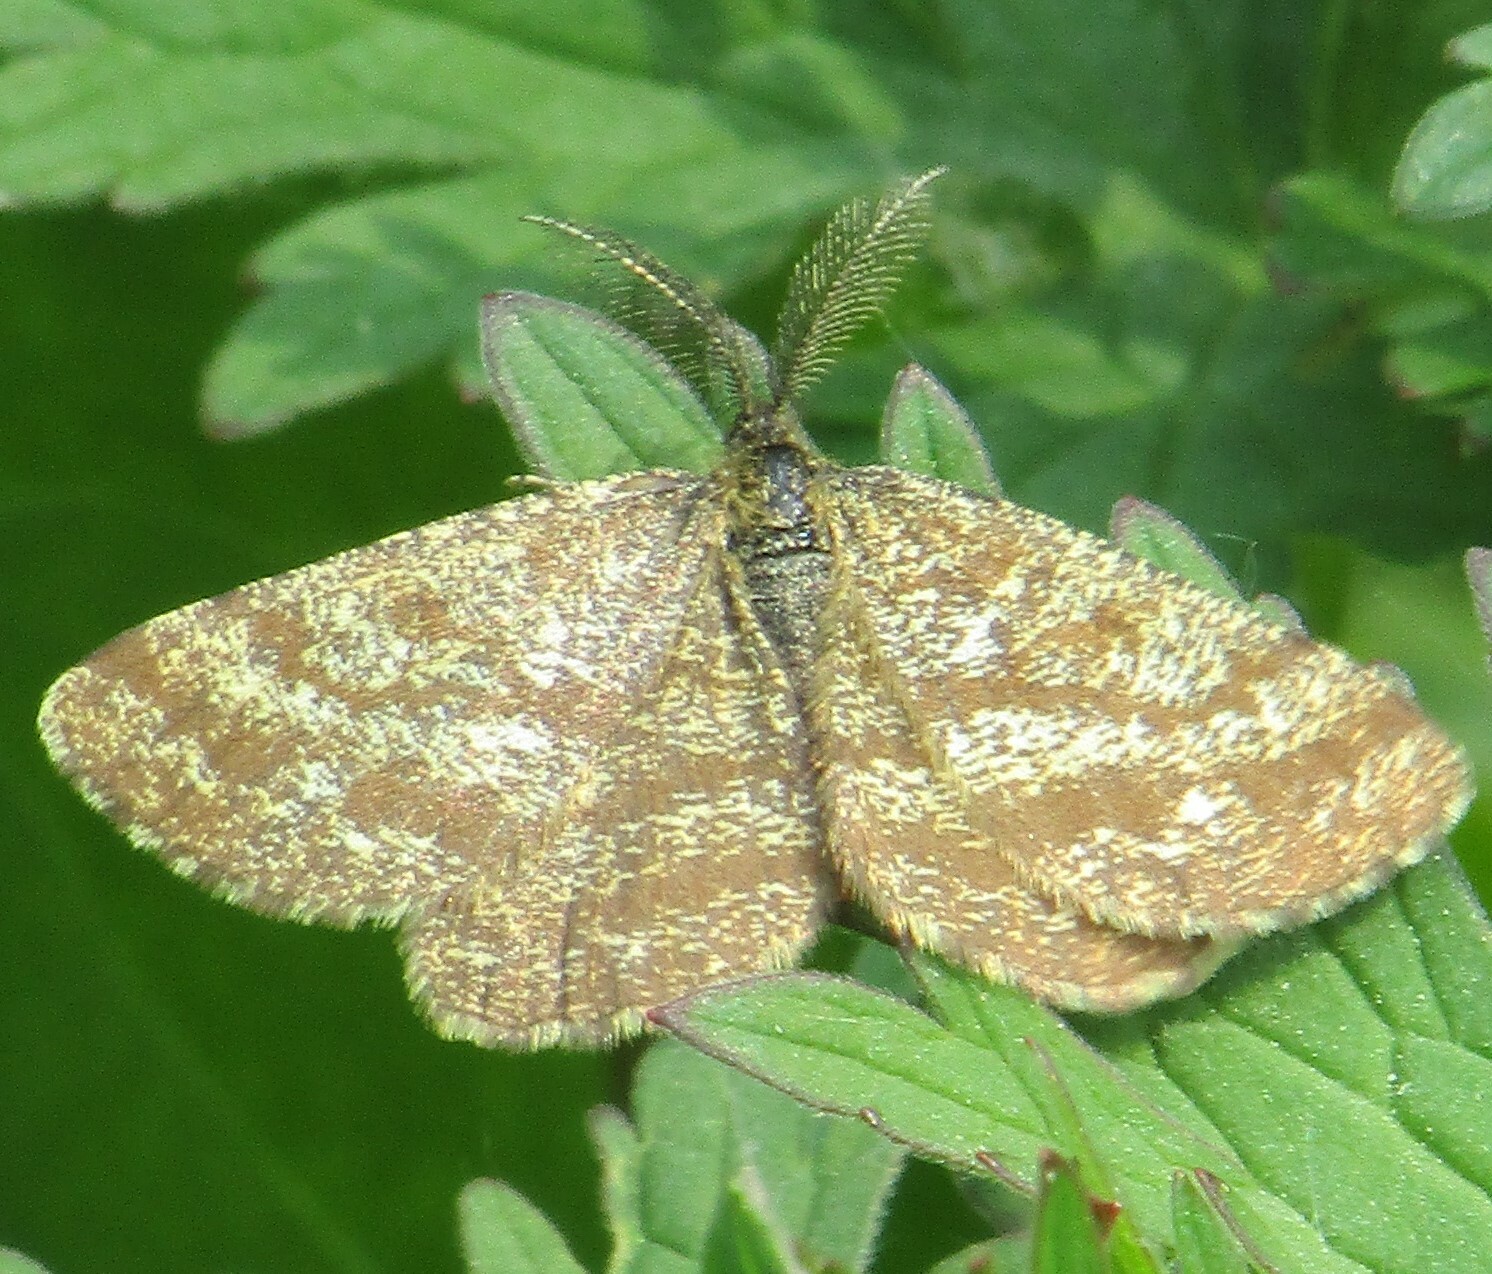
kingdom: Animalia
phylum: Arthropoda
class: Insecta
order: Lepidoptera
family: Geometridae
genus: Ematurga
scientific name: Ematurga atomaria
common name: Common heath
